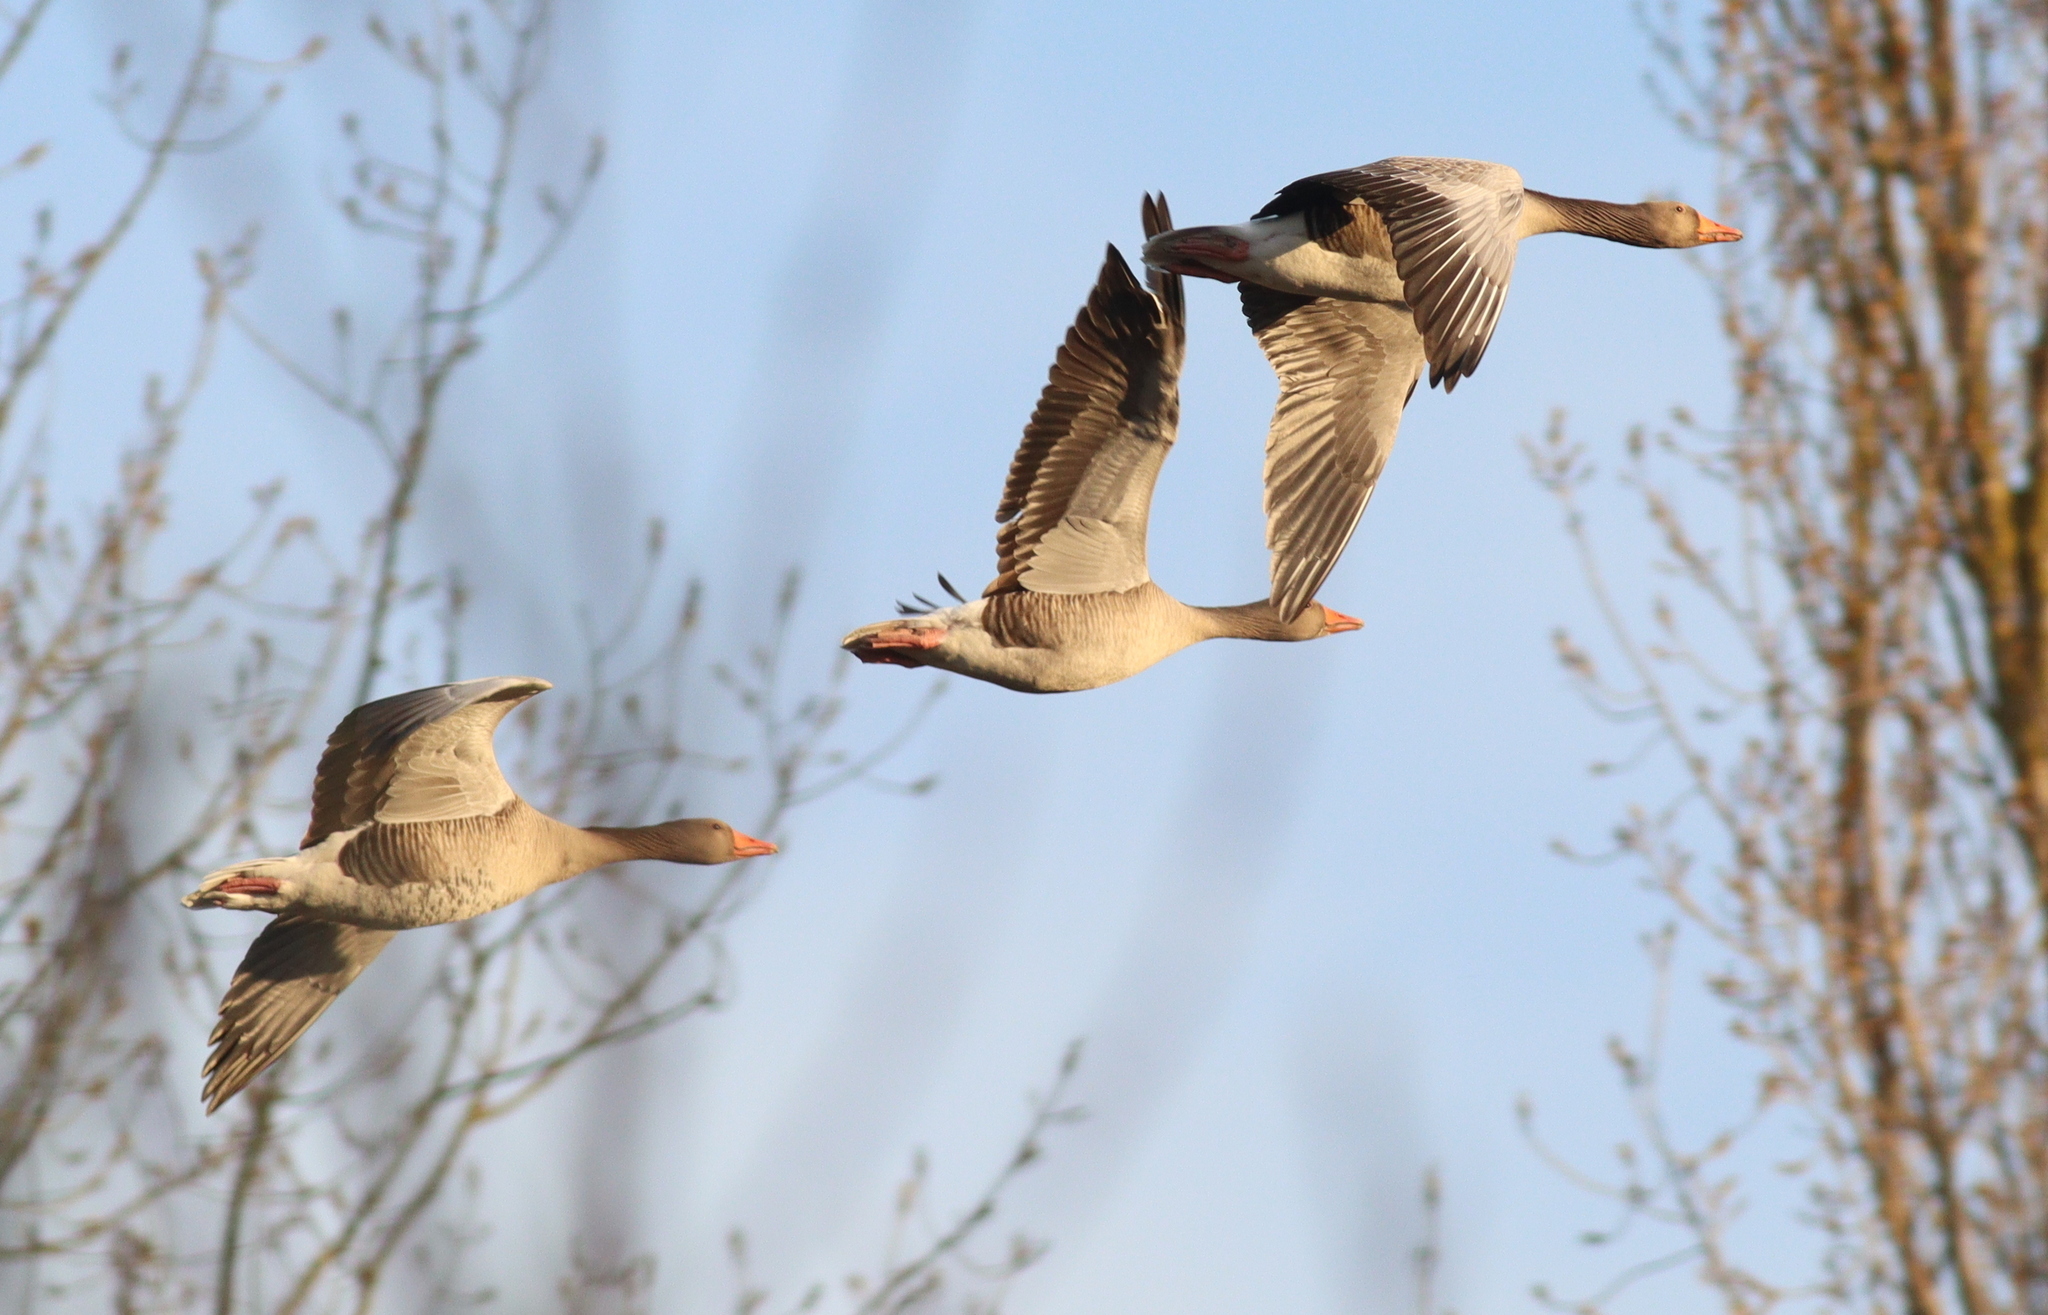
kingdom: Animalia
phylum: Chordata
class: Aves
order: Anseriformes
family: Anatidae
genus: Anser
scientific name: Anser anser
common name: Greylag goose
